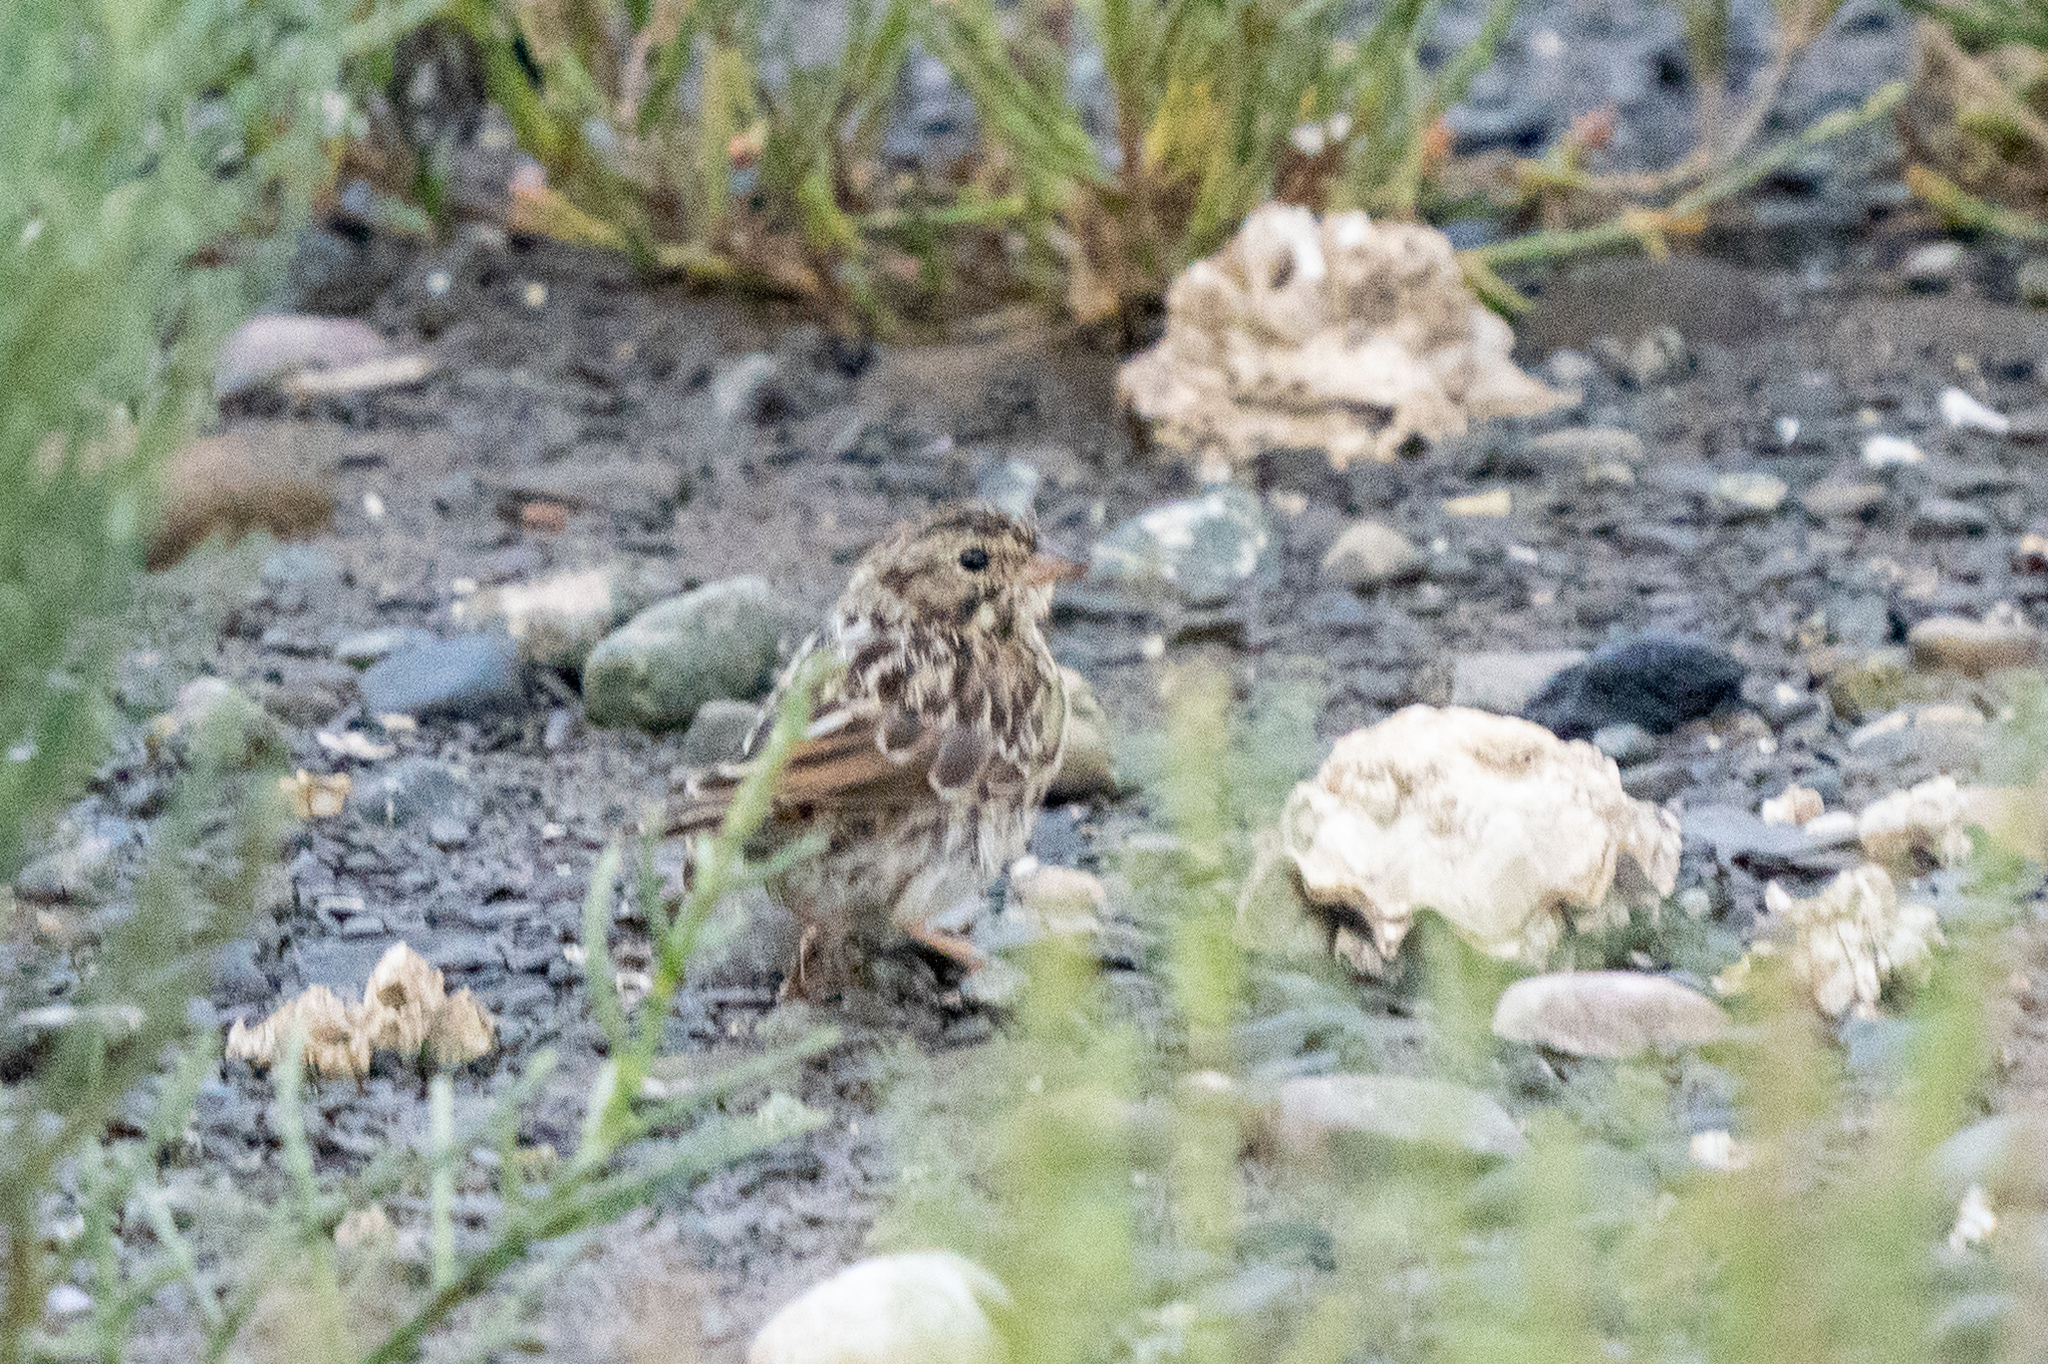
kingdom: Animalia
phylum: Chordata
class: Aves
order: Passeriformes
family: Passerellidae
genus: Passerculus
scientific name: Passerculus sandwichensis
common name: Savannah sparrow
